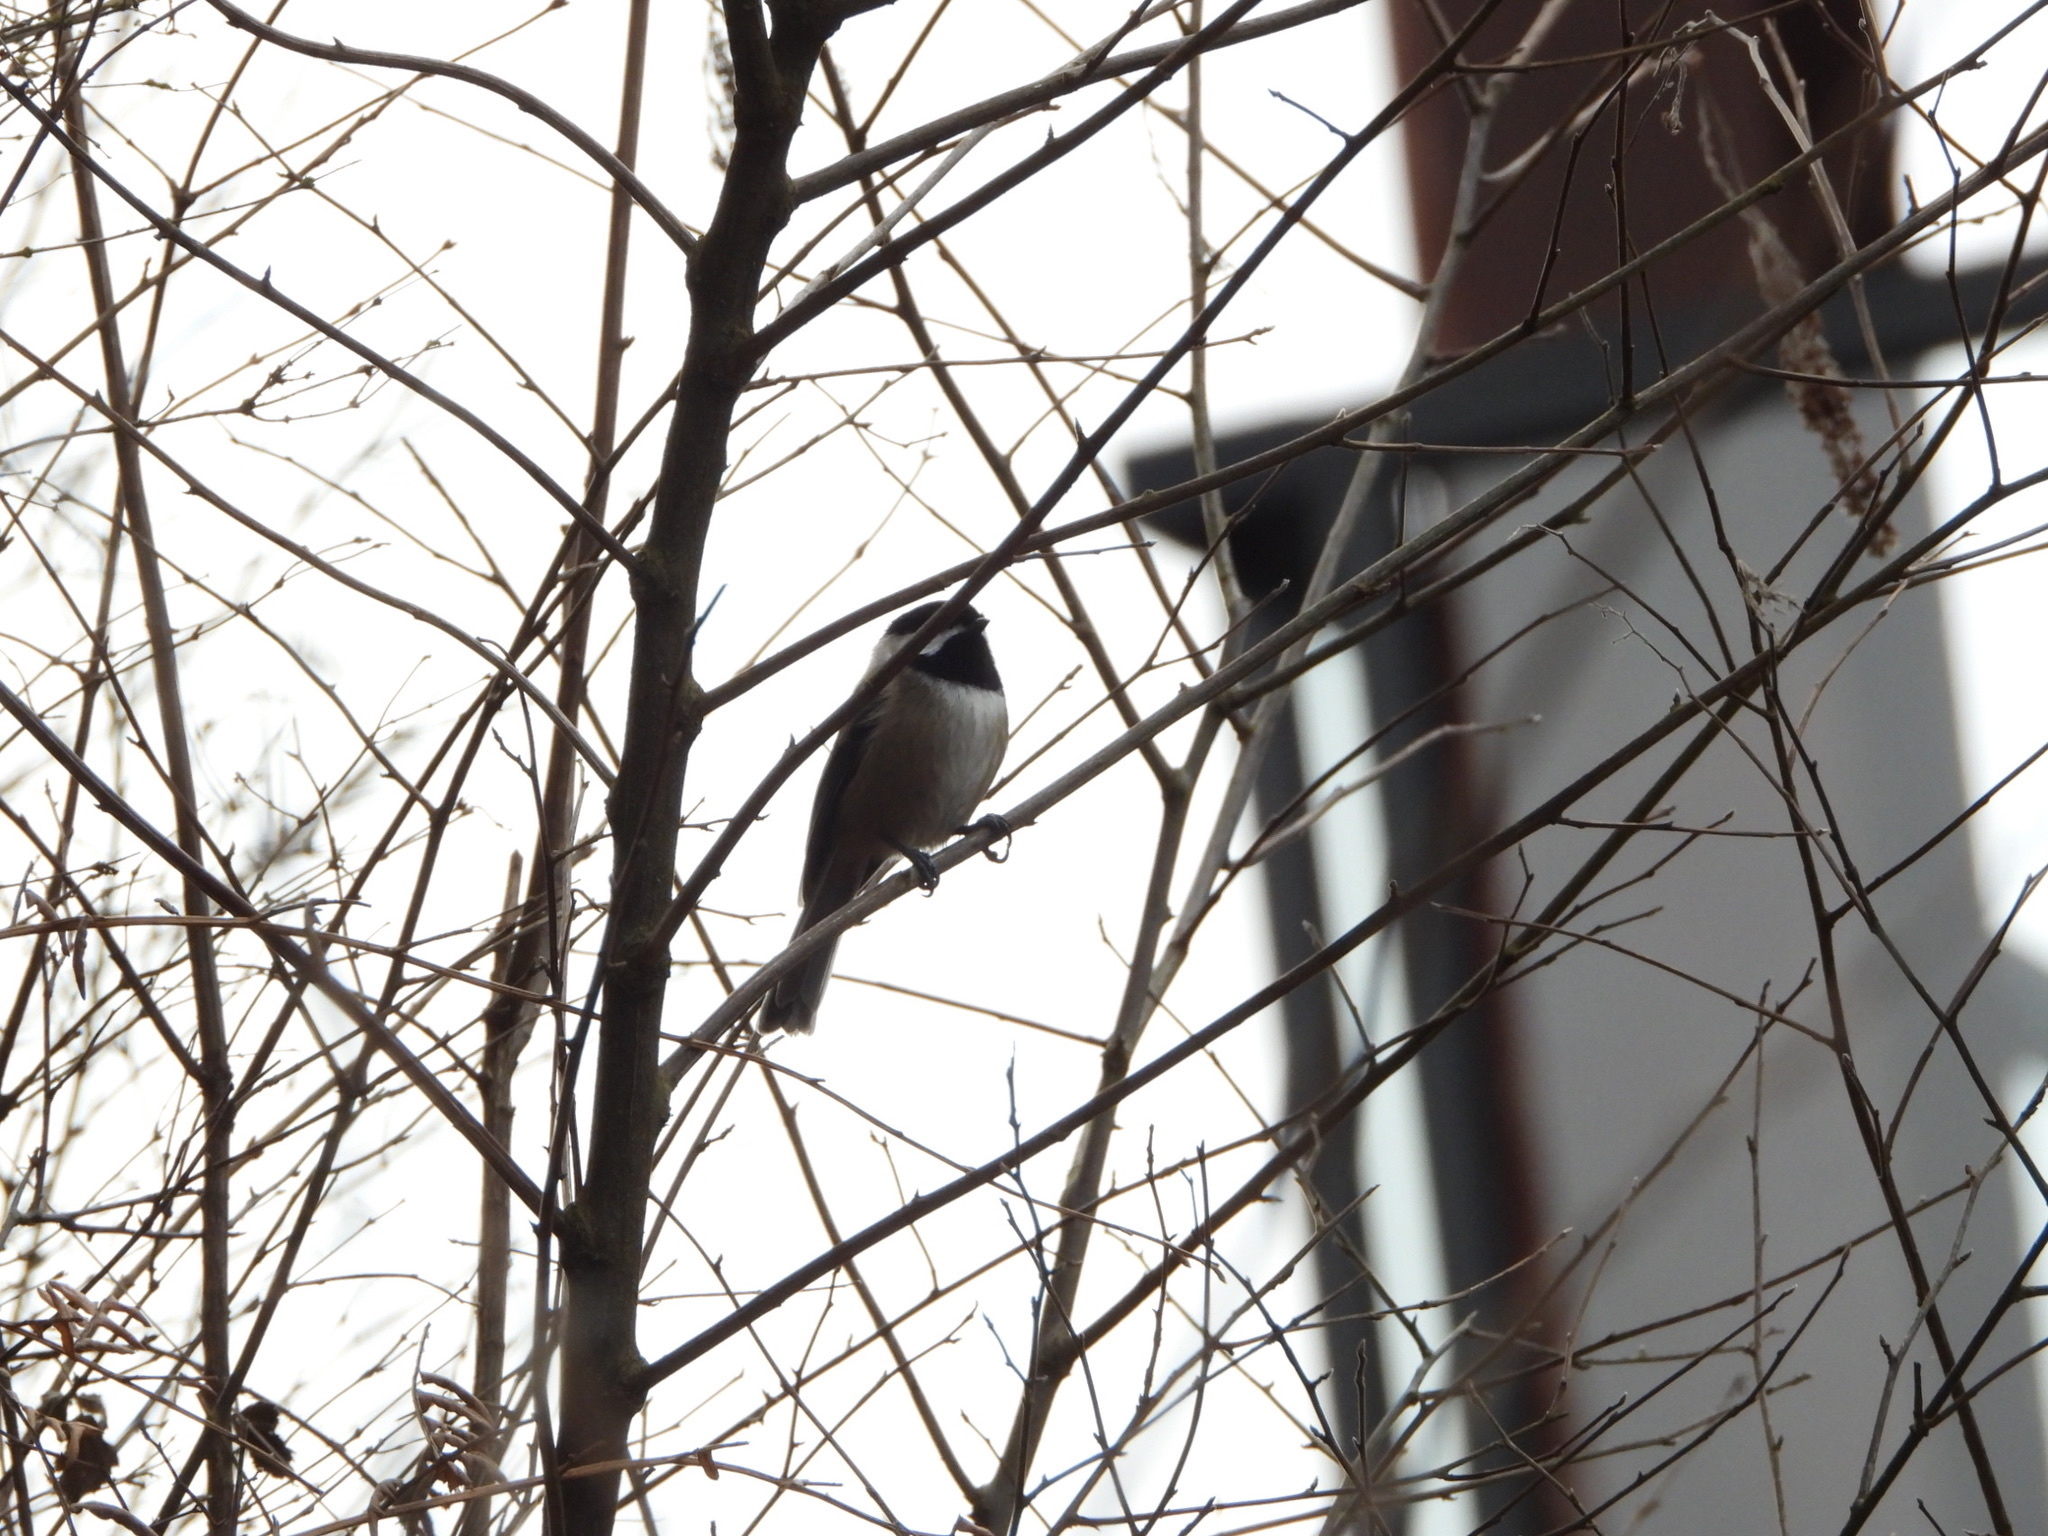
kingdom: Animalia
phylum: Chordata
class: Aves
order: Passeriformes
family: Paridae
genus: Poecile
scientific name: Poecile atricapillus
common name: Black-capped chickadee
